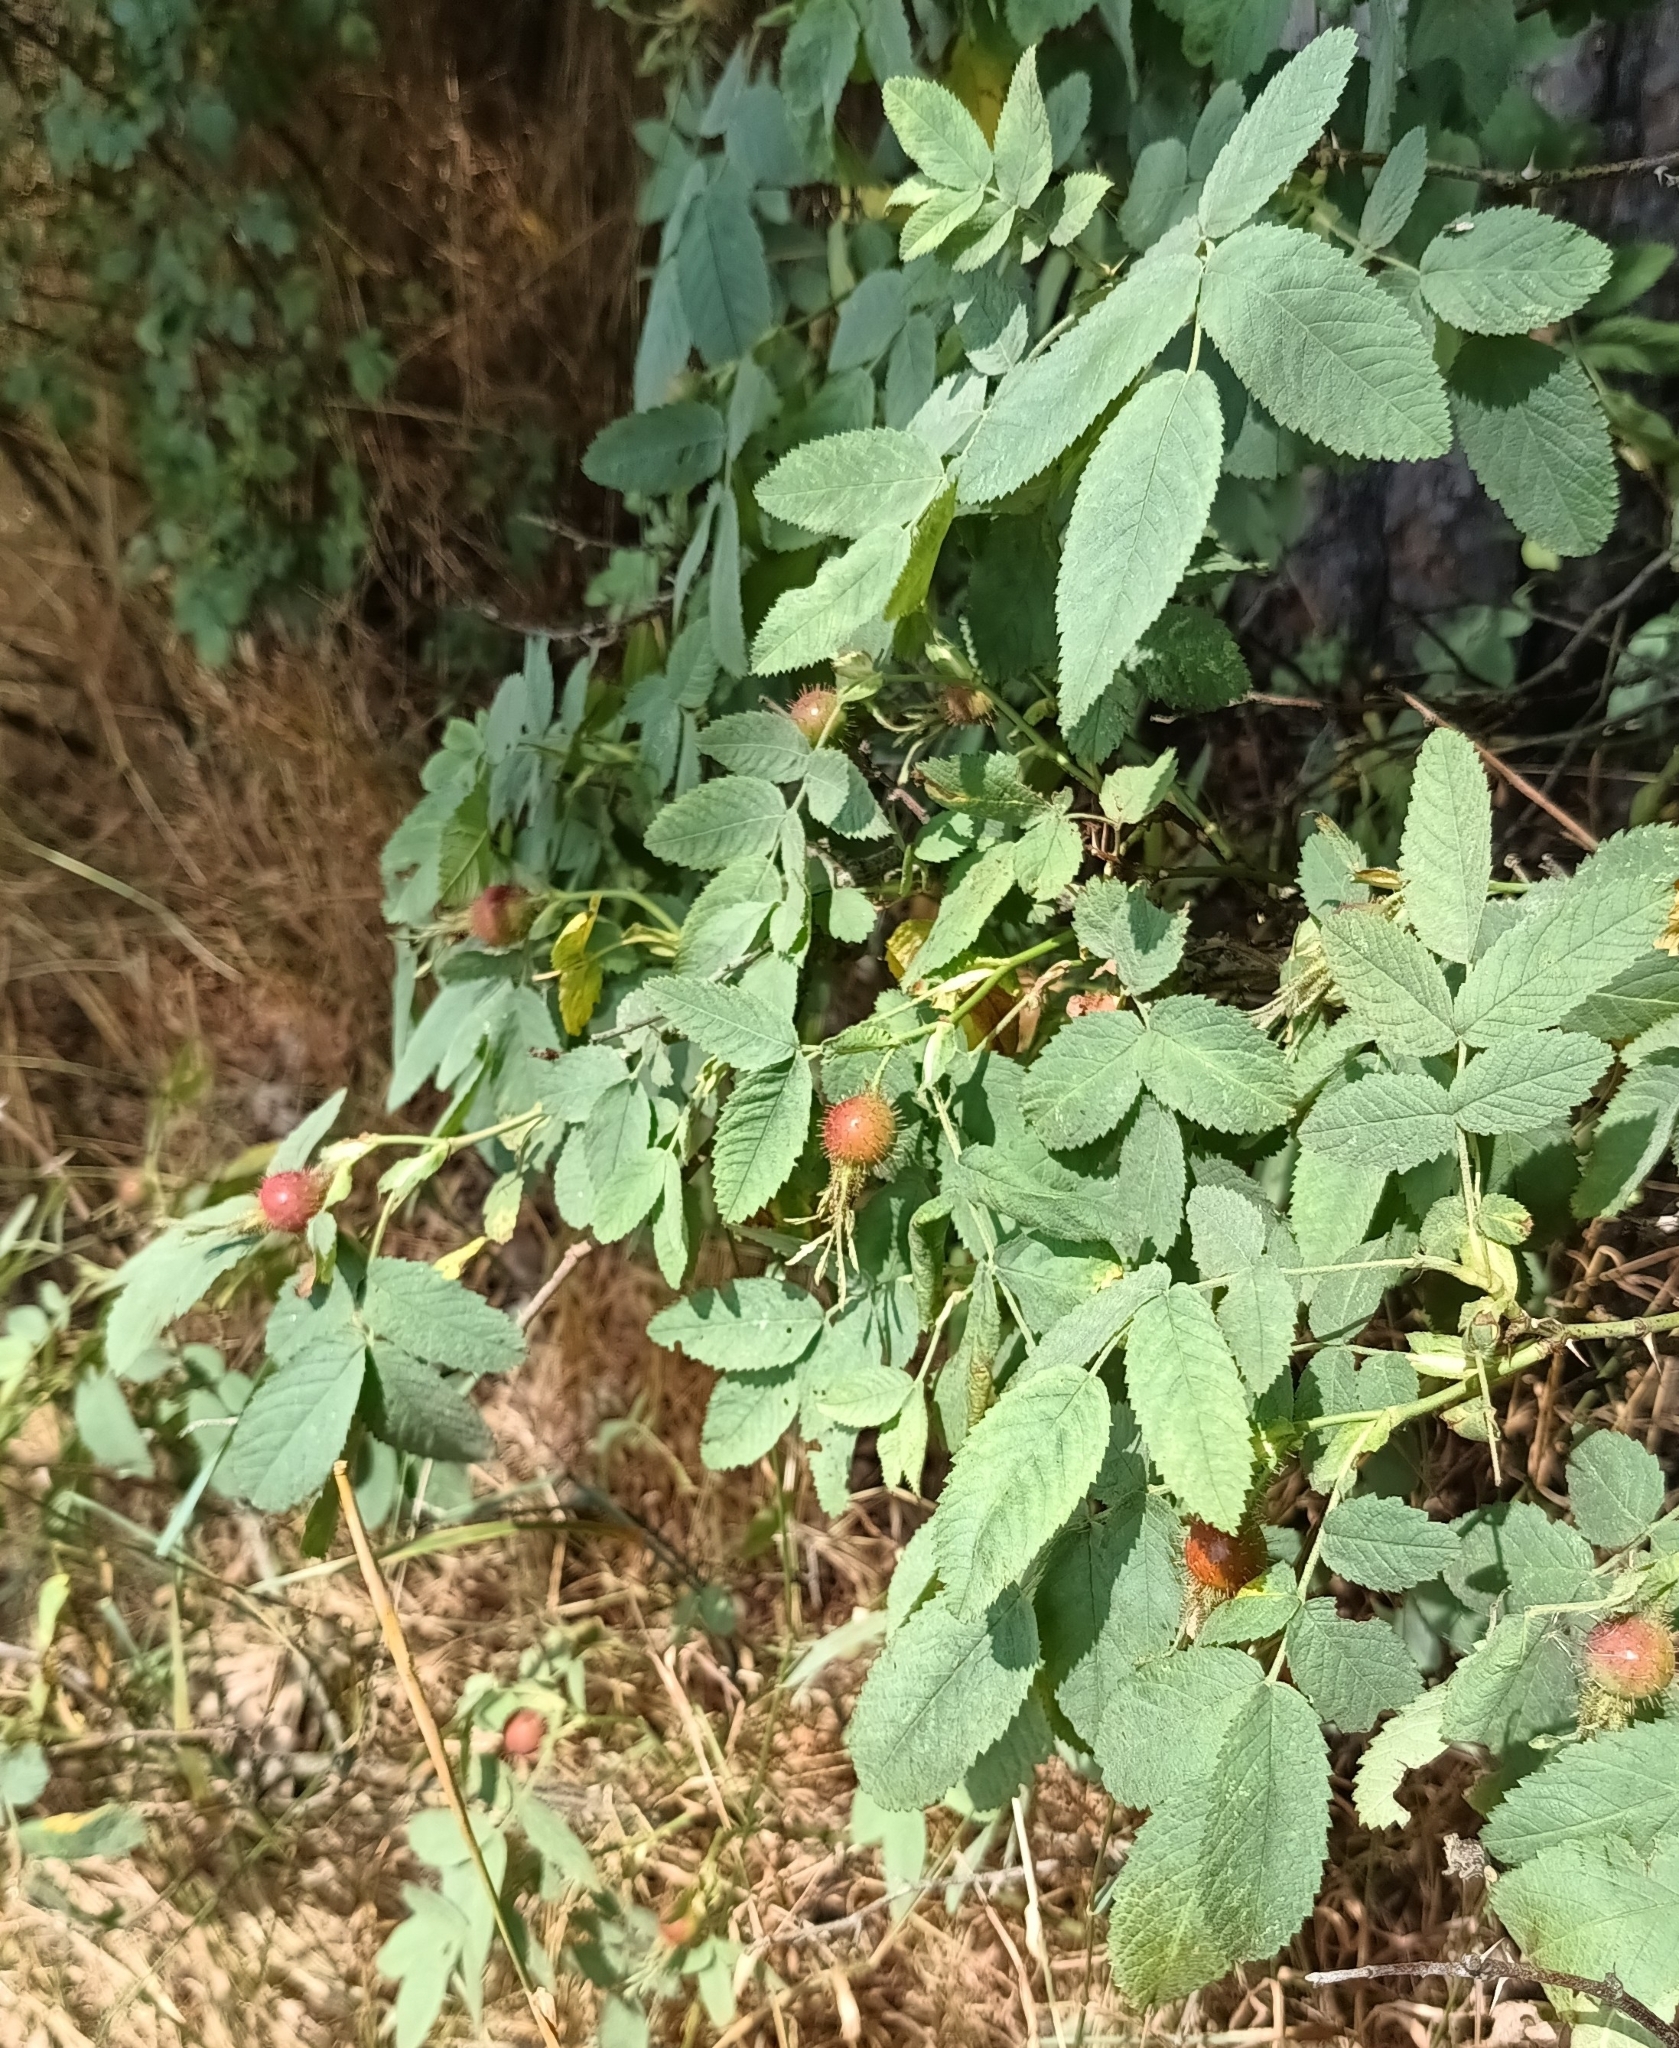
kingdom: Plantae
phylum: Tracheophyta
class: Magnoliopsida
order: Rosales
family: Rosaceae
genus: Rosa
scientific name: Rosa villosa
